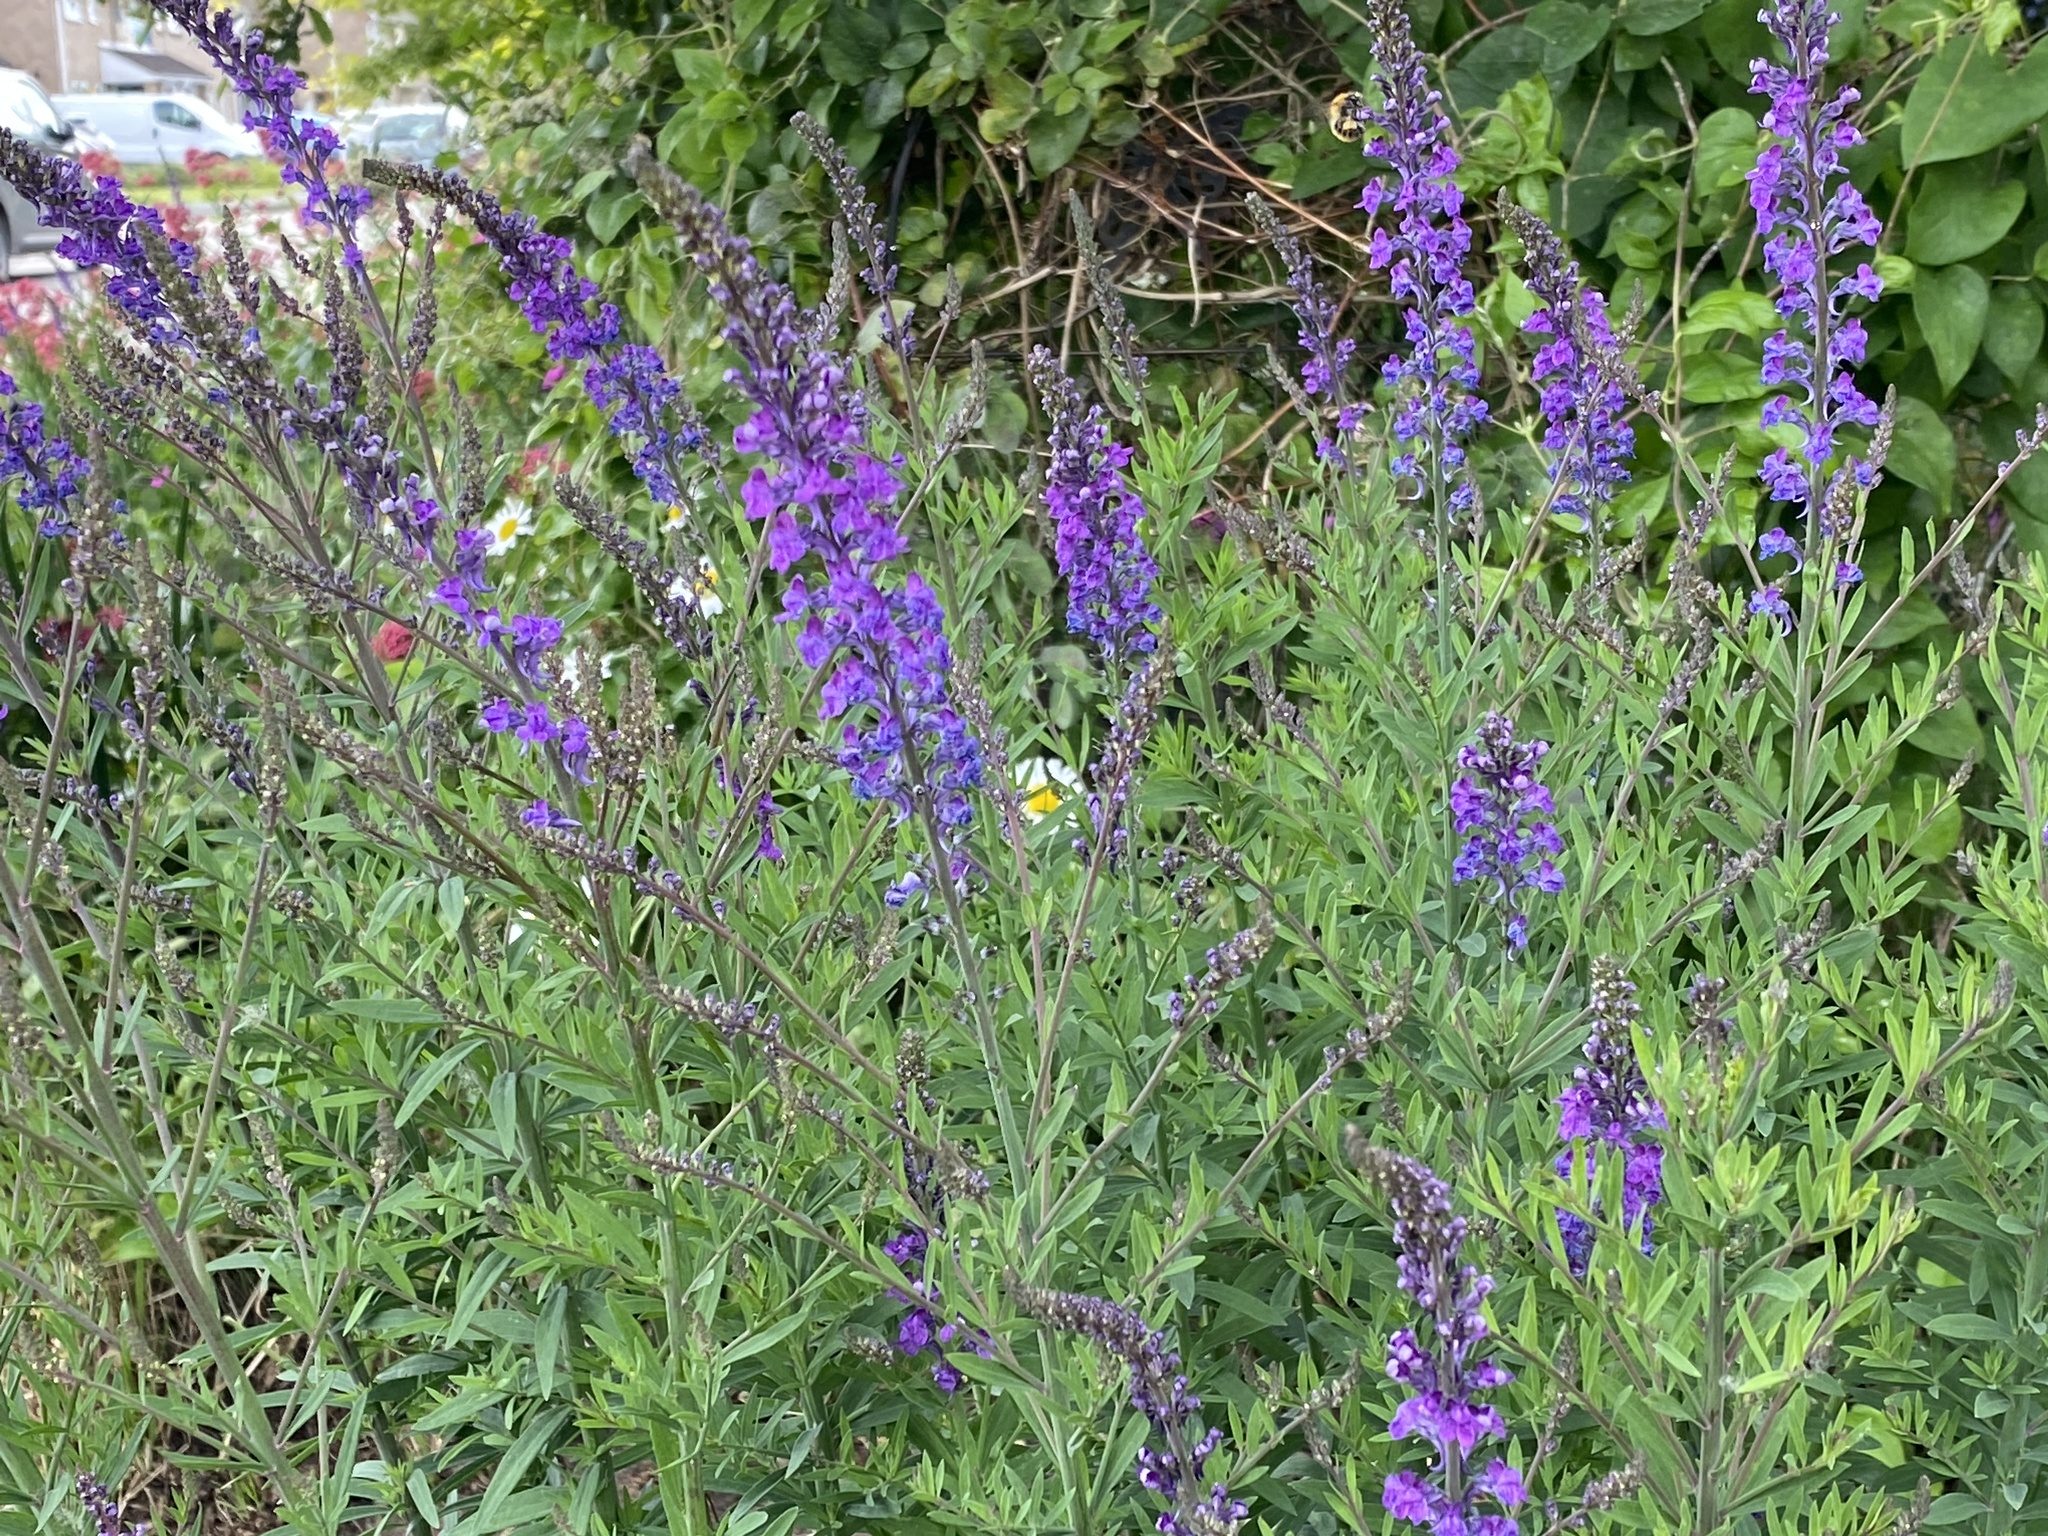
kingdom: Plantae
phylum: Tracheophyta
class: Magnoliopsida
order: Lamiales
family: Plantaginaceae
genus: Linaria
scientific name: Linaria purpurea
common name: Purple toadflax
